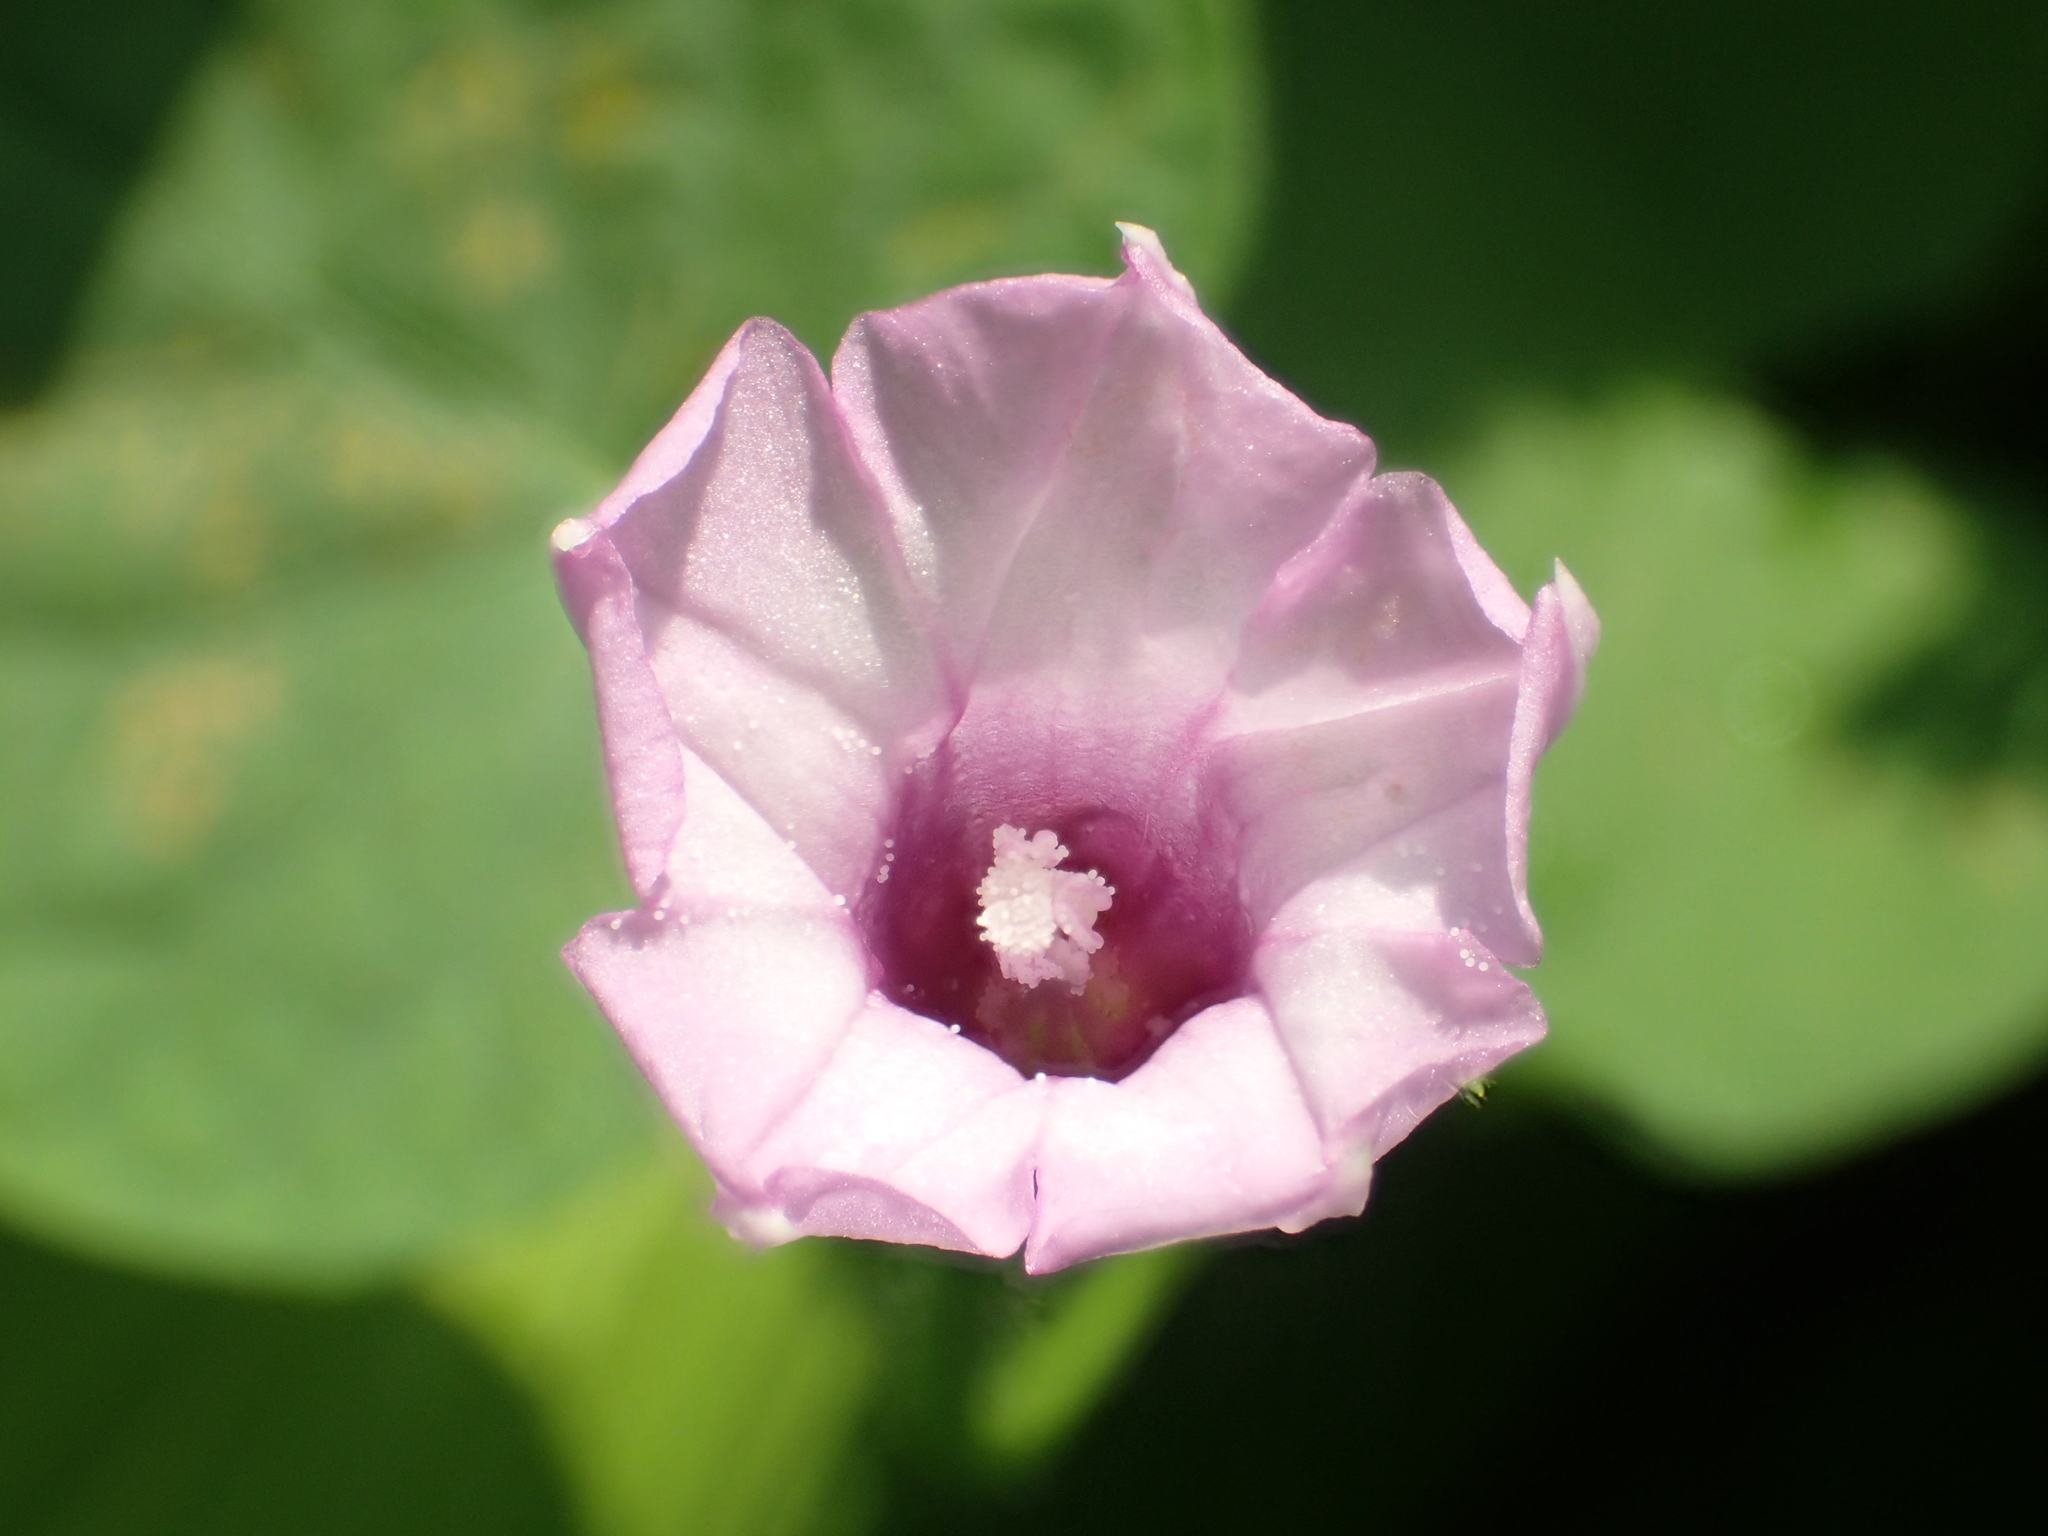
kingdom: Plantae
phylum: Tracheophyta
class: Magnoliopsida
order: Solanales
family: Convolvulaceae
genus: Ipomoea
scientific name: Ipomoea triloba
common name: Little-bell
